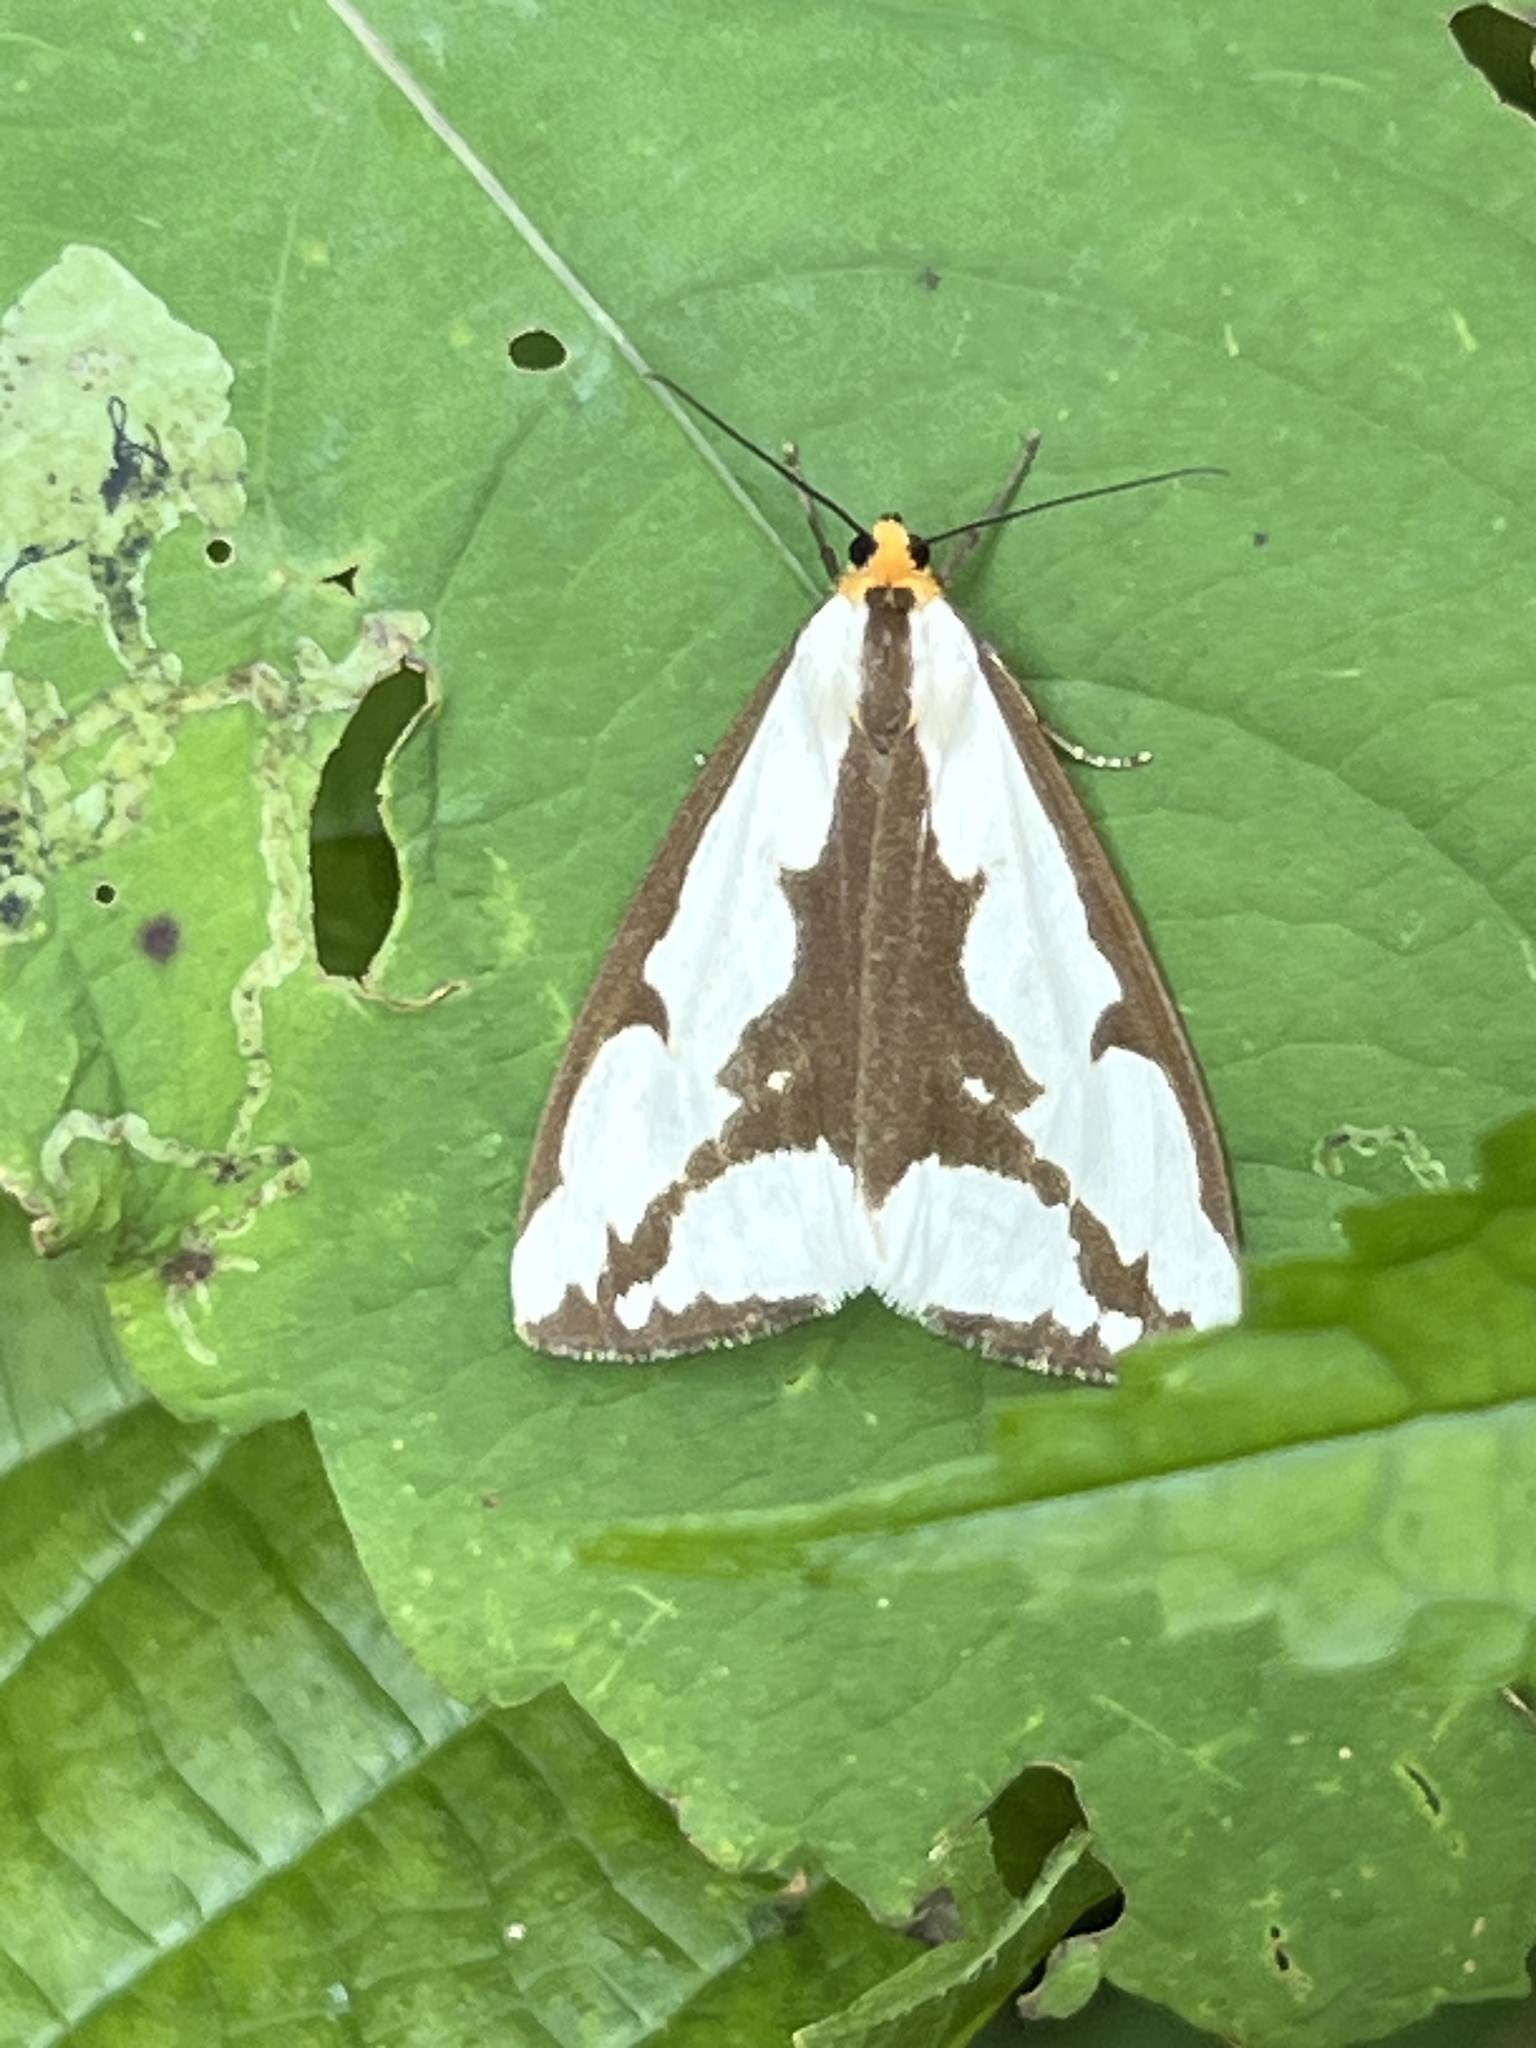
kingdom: Animalia
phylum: Arthropoda
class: Insecta
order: Lepidoptera
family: Erebidae
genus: Haploa
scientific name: Haploa lecontei
